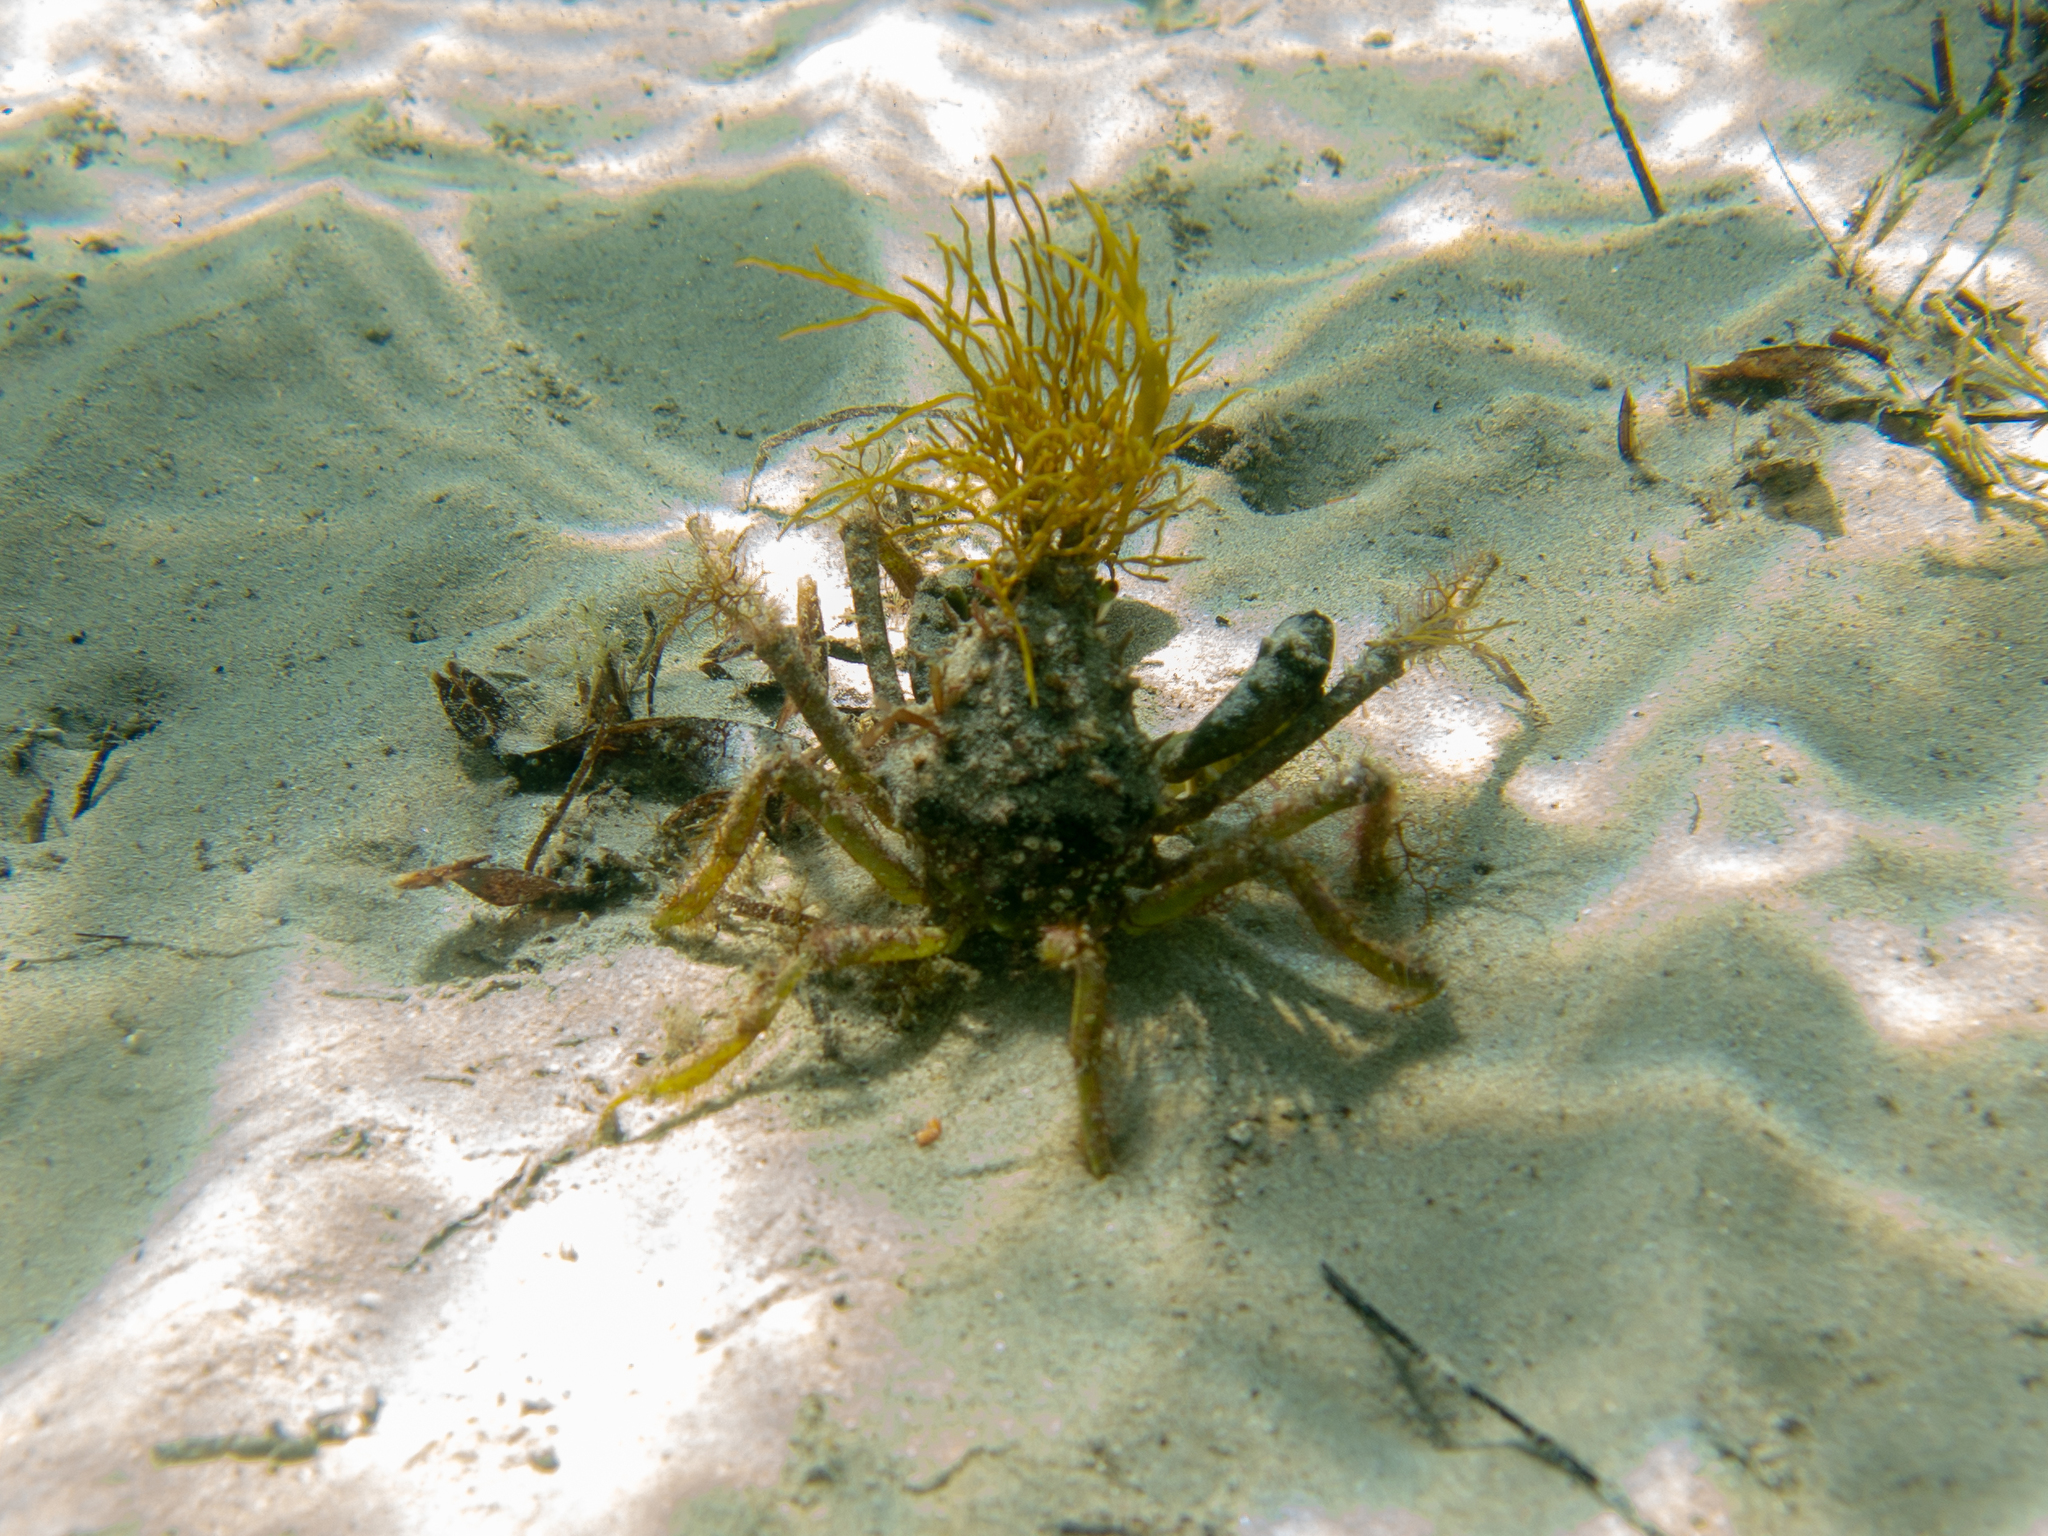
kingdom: Animalia
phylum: Arthropoda
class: Malacostraca
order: Decapoda
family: Majidae
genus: Naxia
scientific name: Naxia aurita
